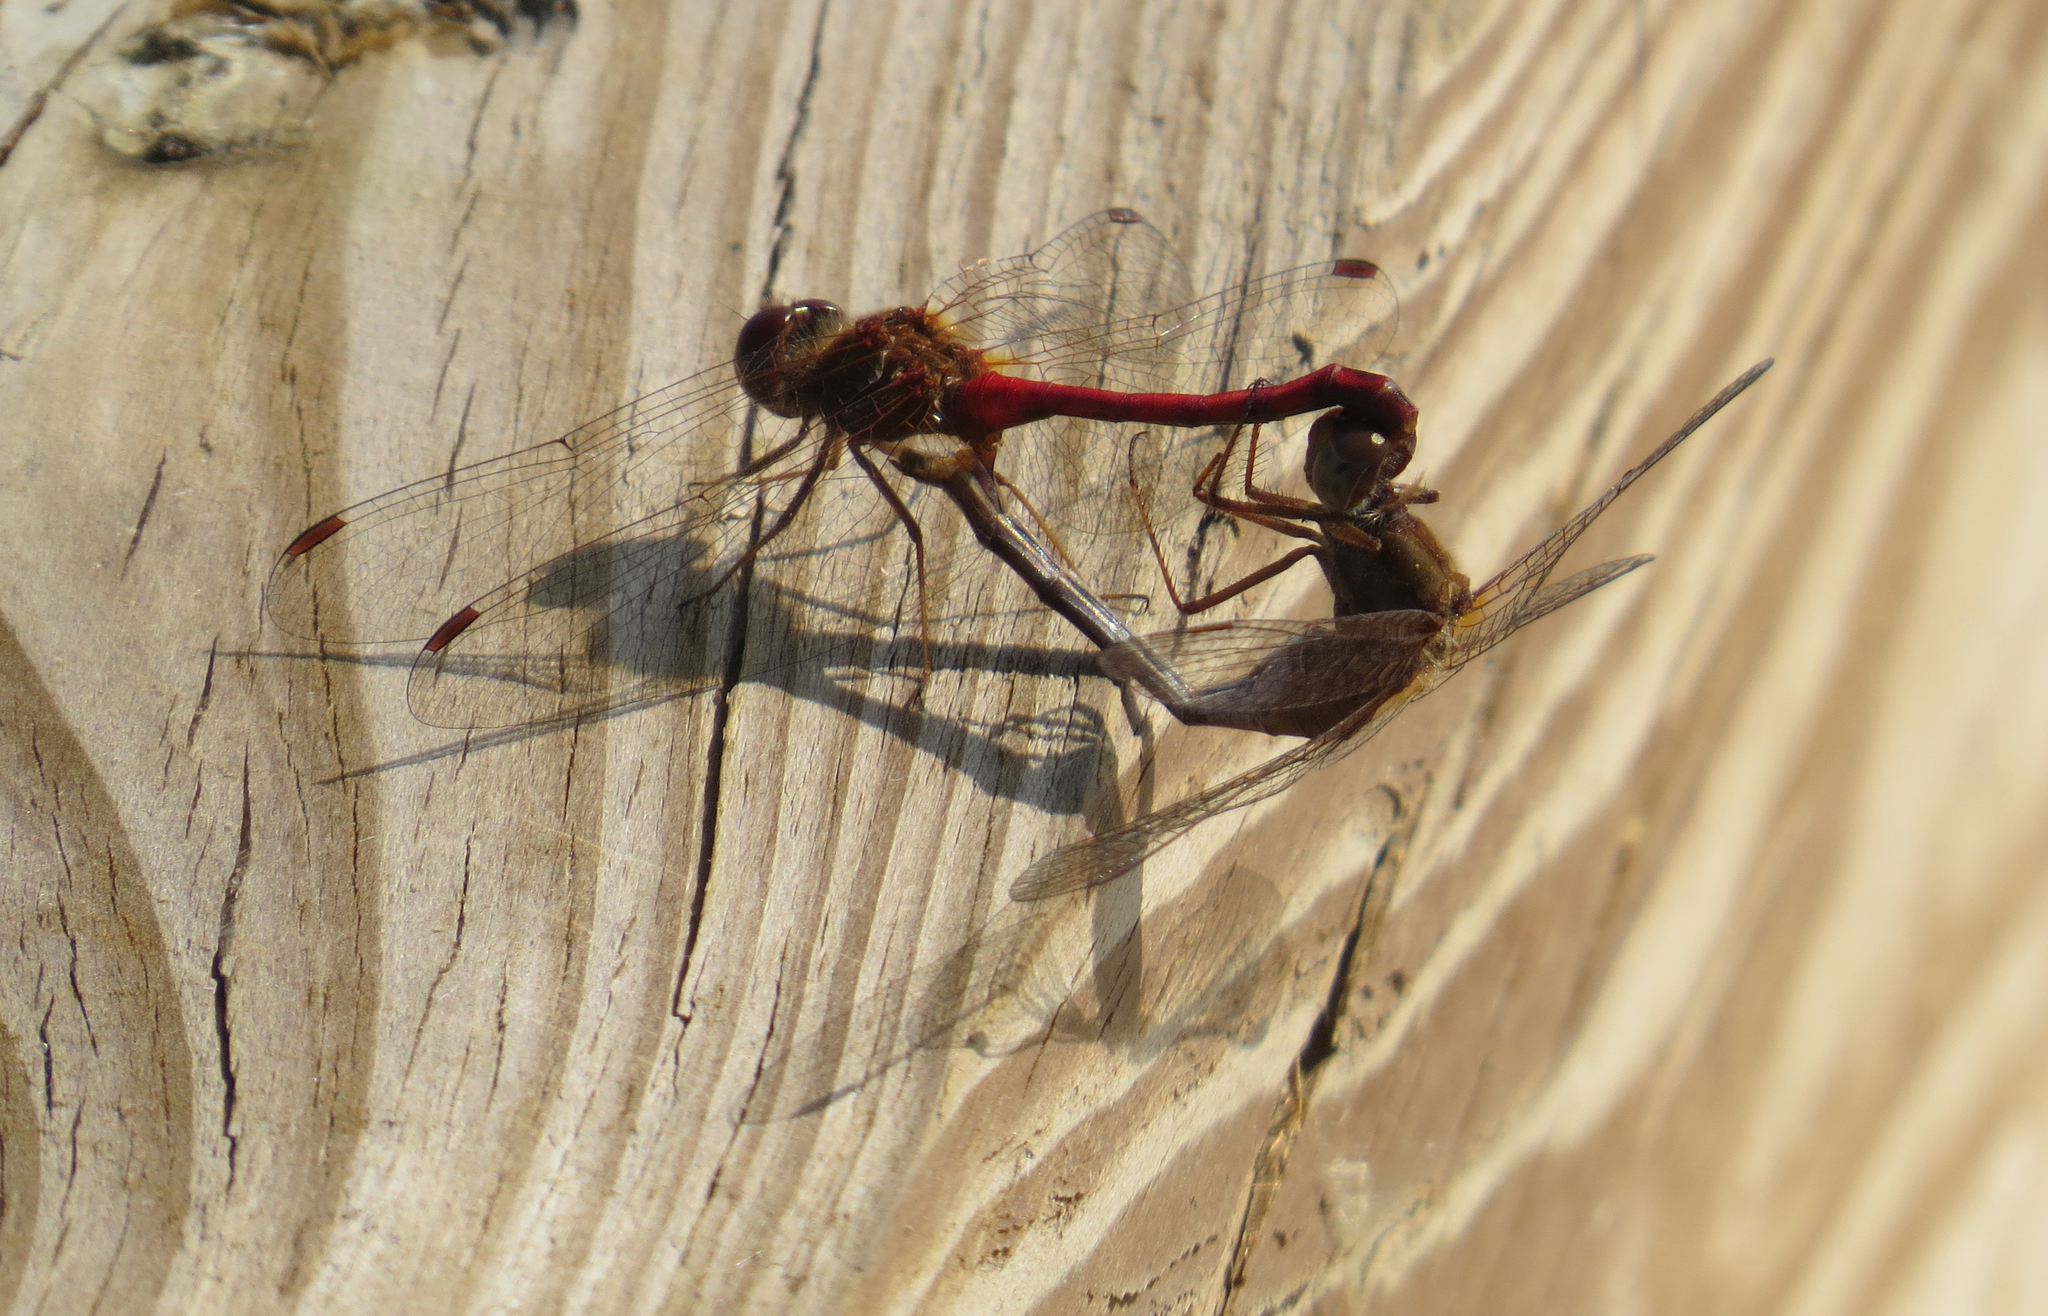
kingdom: Animalia
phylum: Arthropoda
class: Insecta
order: Odonata
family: Libellulidae
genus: Sympetrum
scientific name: Sympetrum vicinum
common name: Autumn meadowhawk
